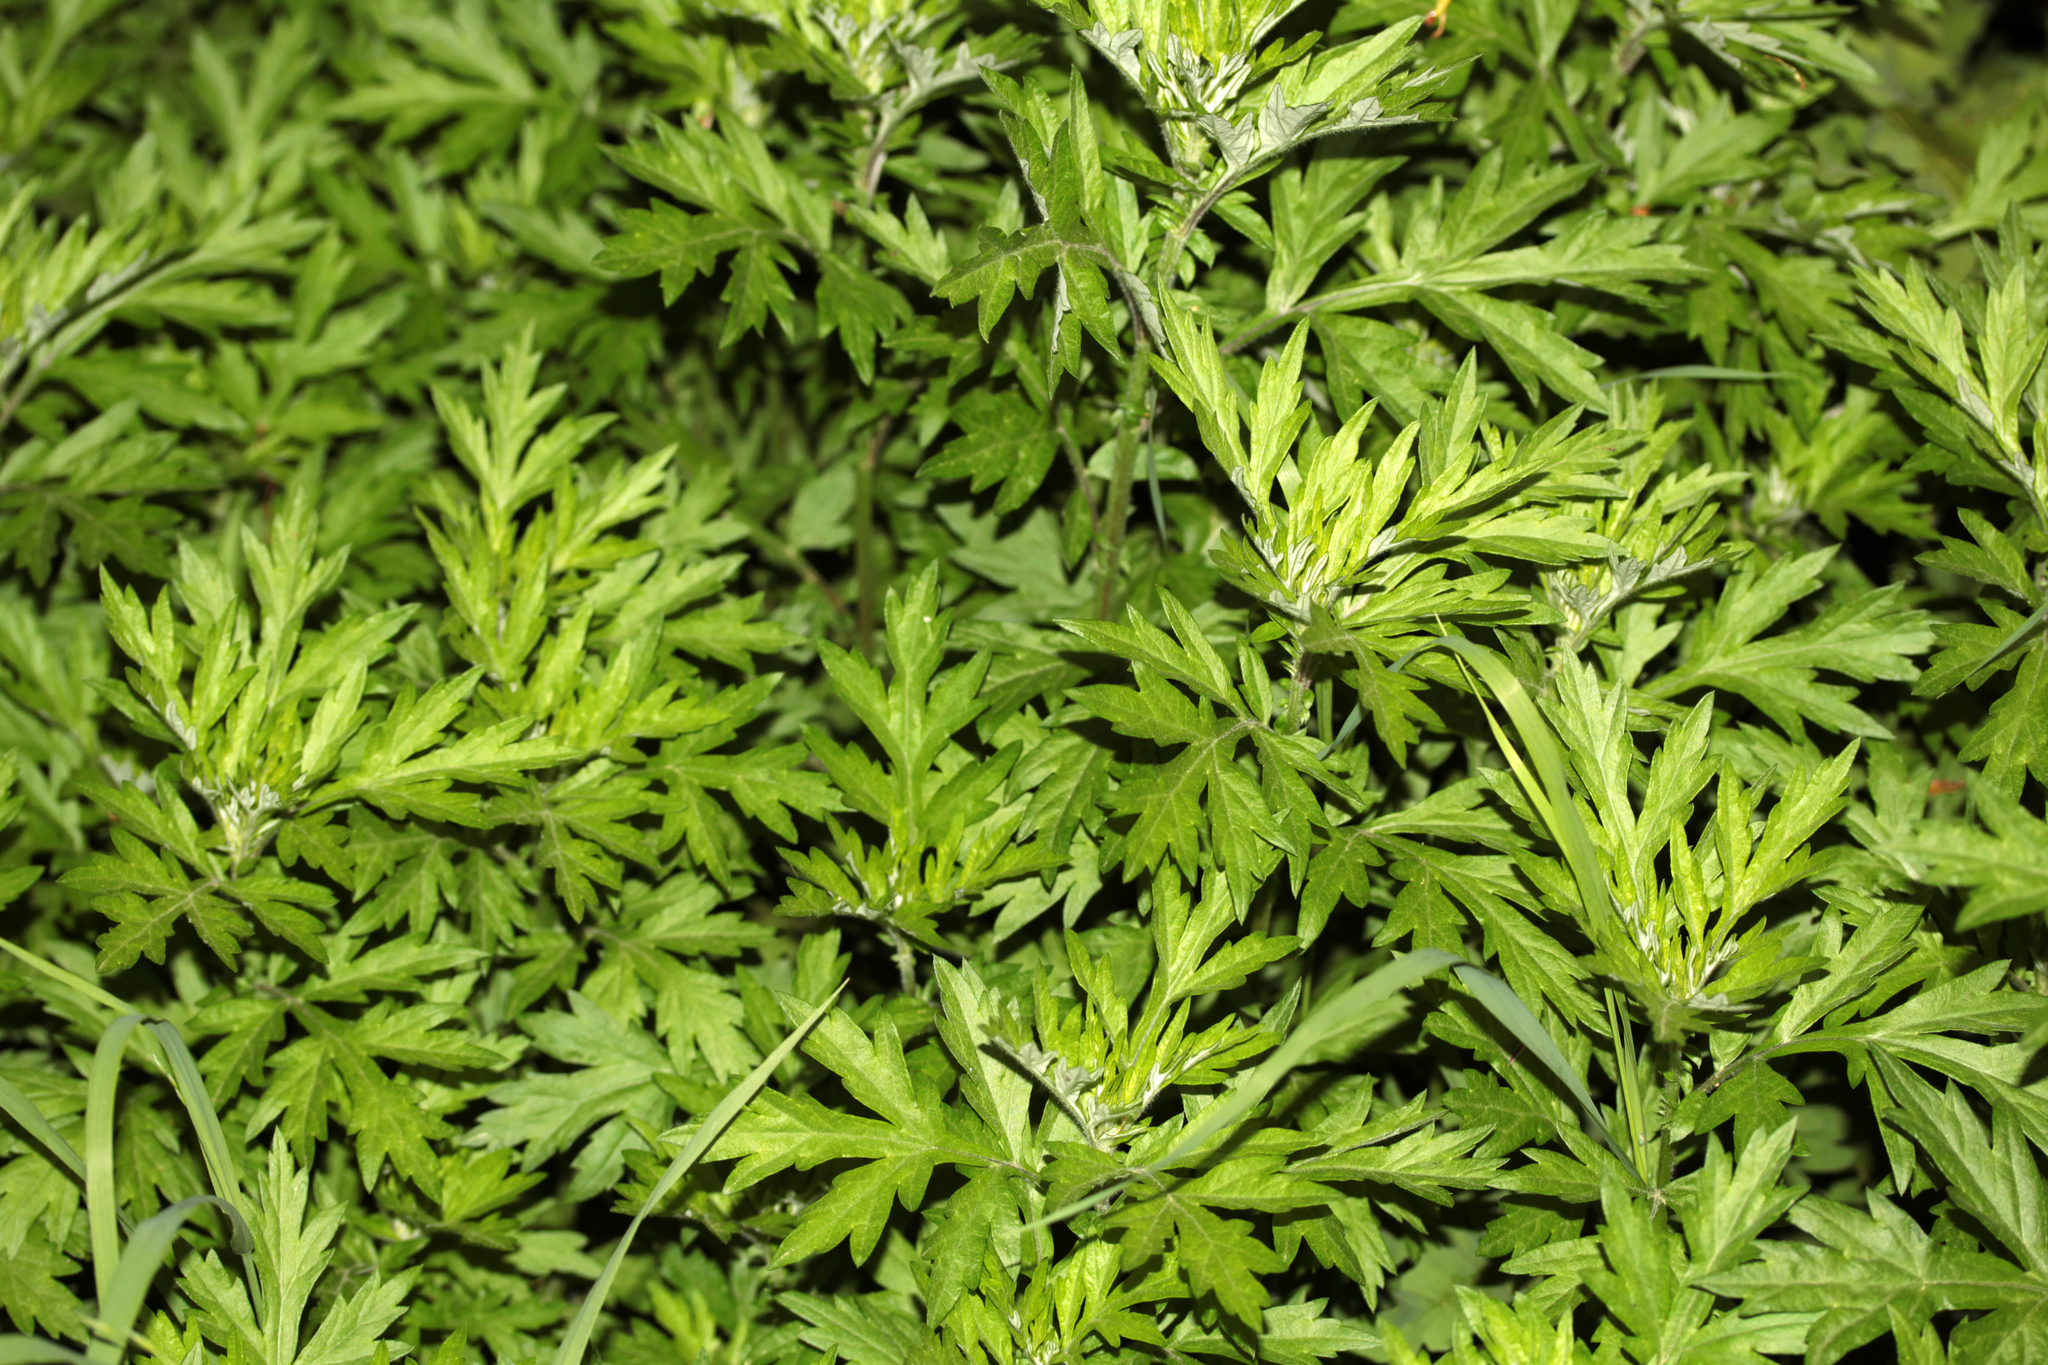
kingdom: Plantae
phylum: Tracheophyta
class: Magnoliopsida
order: Asterales
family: Asteraceae
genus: Artemisia
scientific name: Artemisia vulgaris
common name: Mugwort
